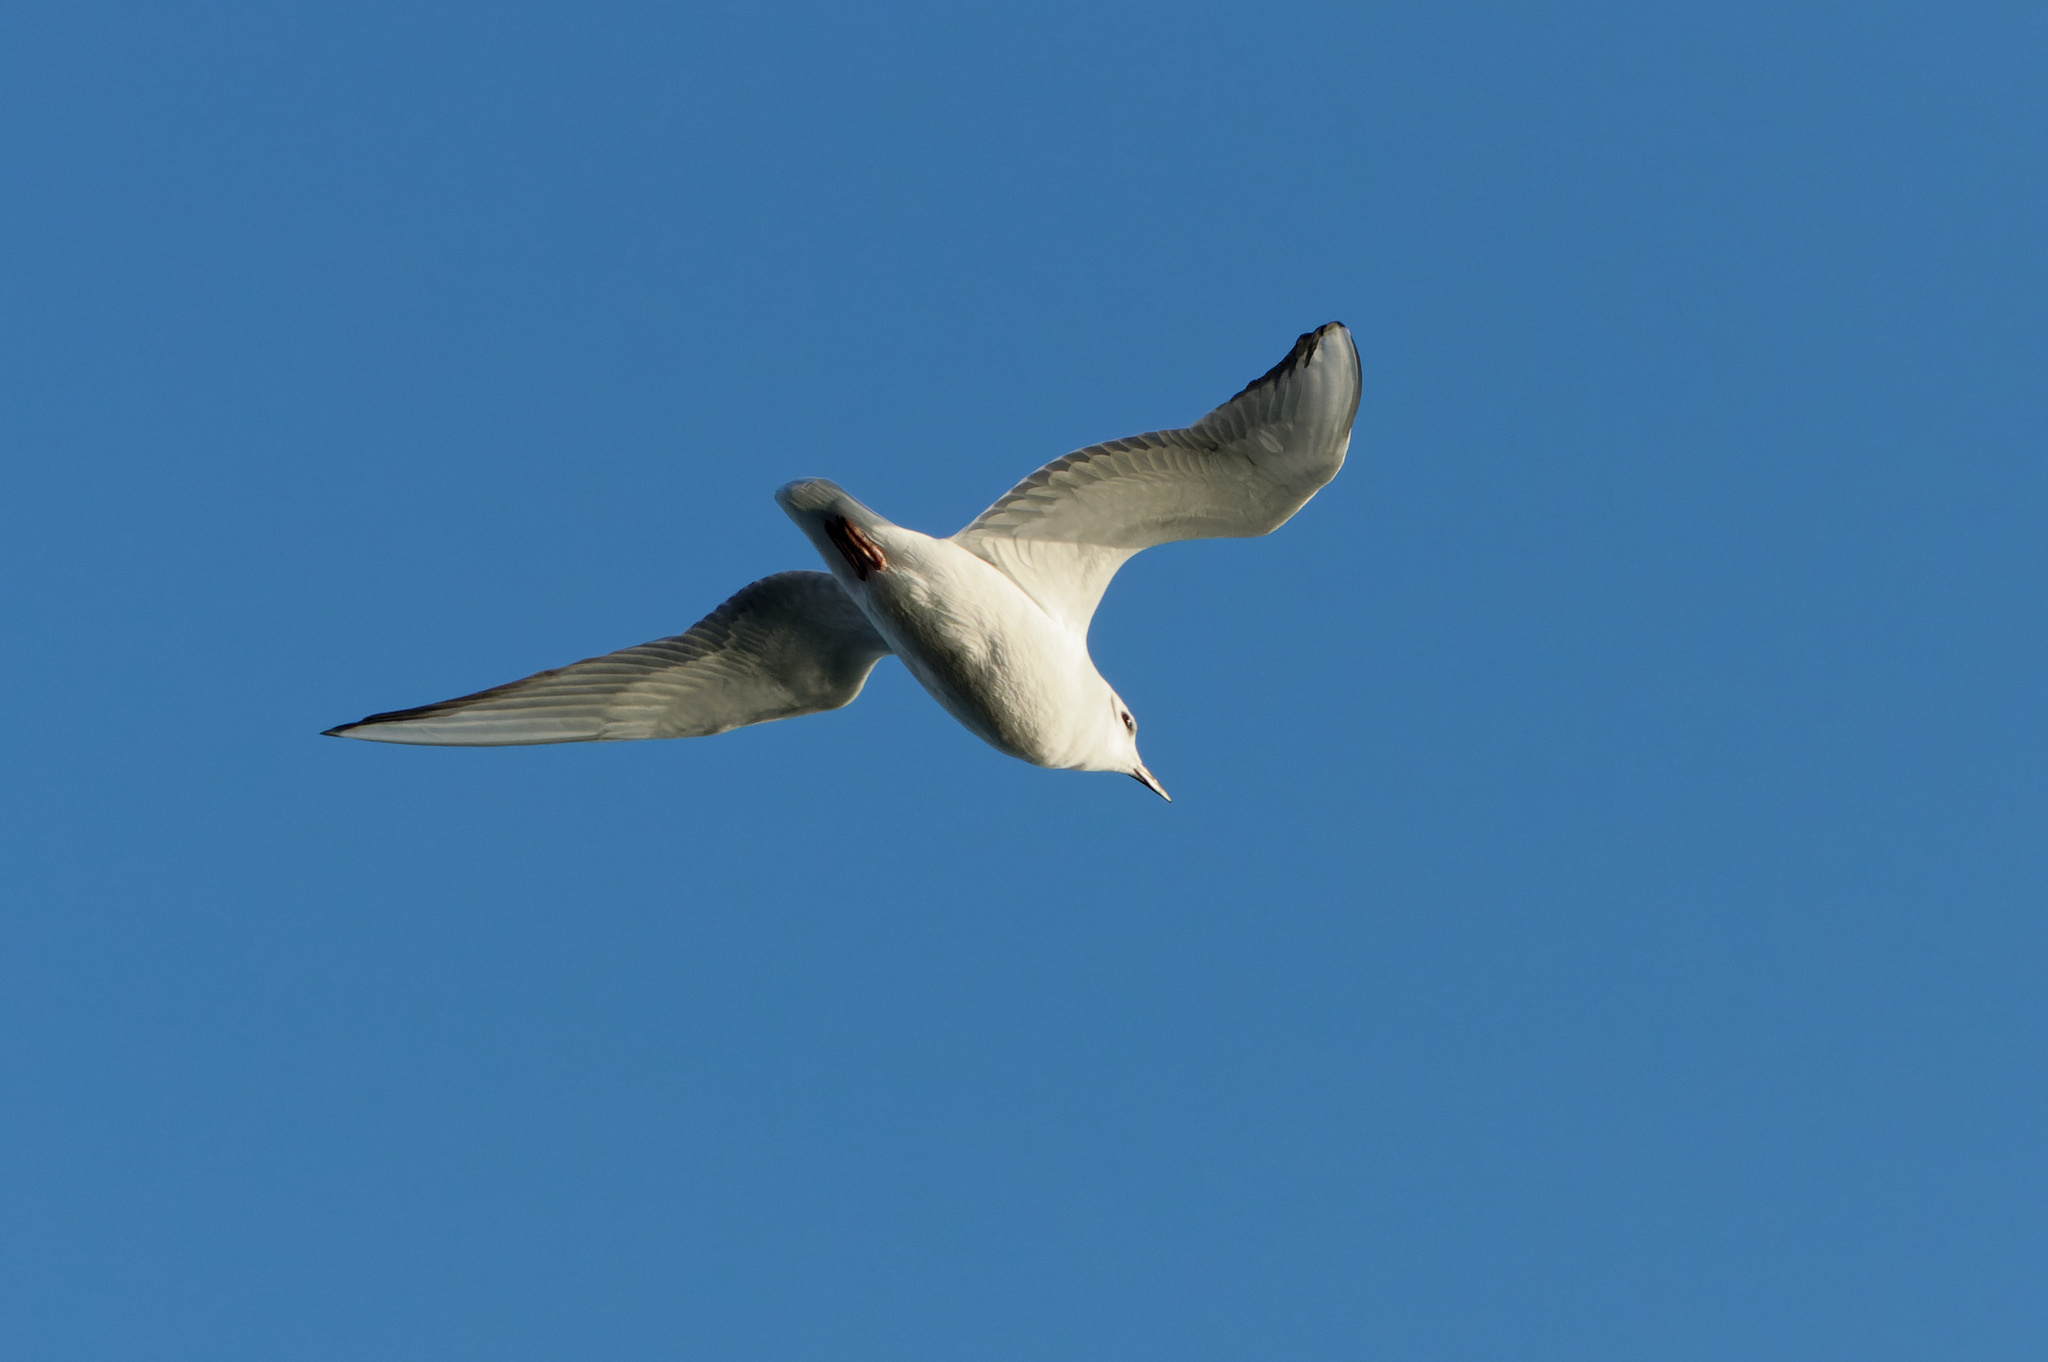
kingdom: Animalia
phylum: Chordata
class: Aves
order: Charadriiformes
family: Laridae
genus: Chroicocephalus
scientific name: Chroicocephalus philadelphia
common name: Bonaparte's gull
